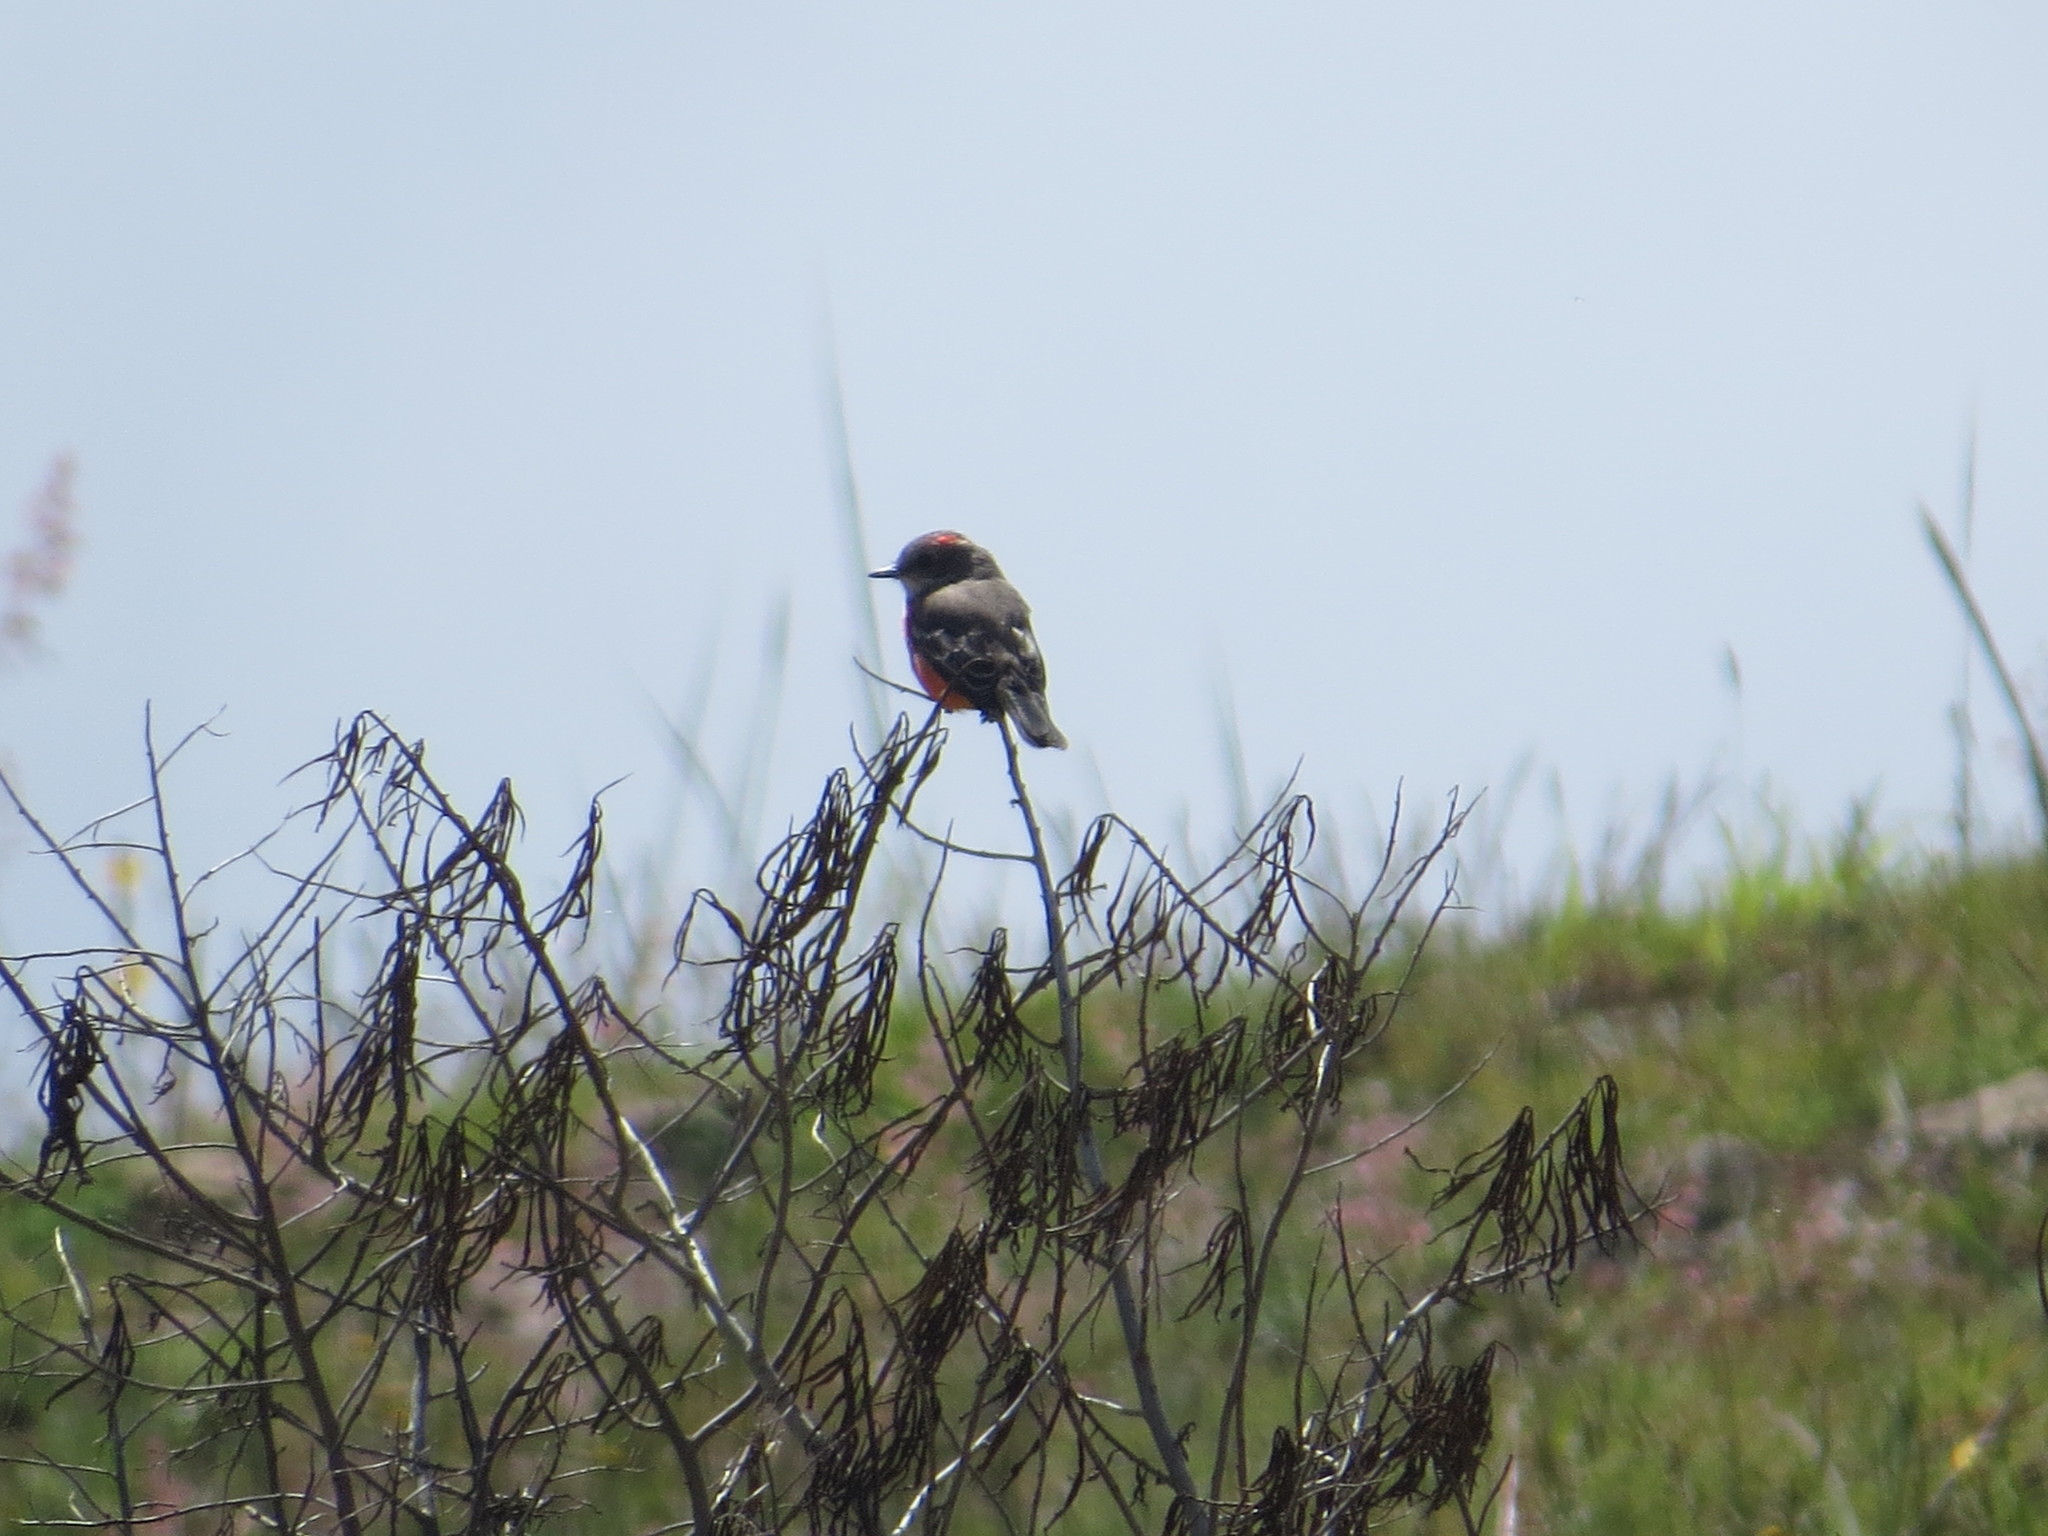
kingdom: Animalia
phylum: Chordata
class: Aves
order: Passeriformes
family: Tyrannidae
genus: Pyrocephalus
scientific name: Pyrocephalus rubinus
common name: Vermilion flycatcher
